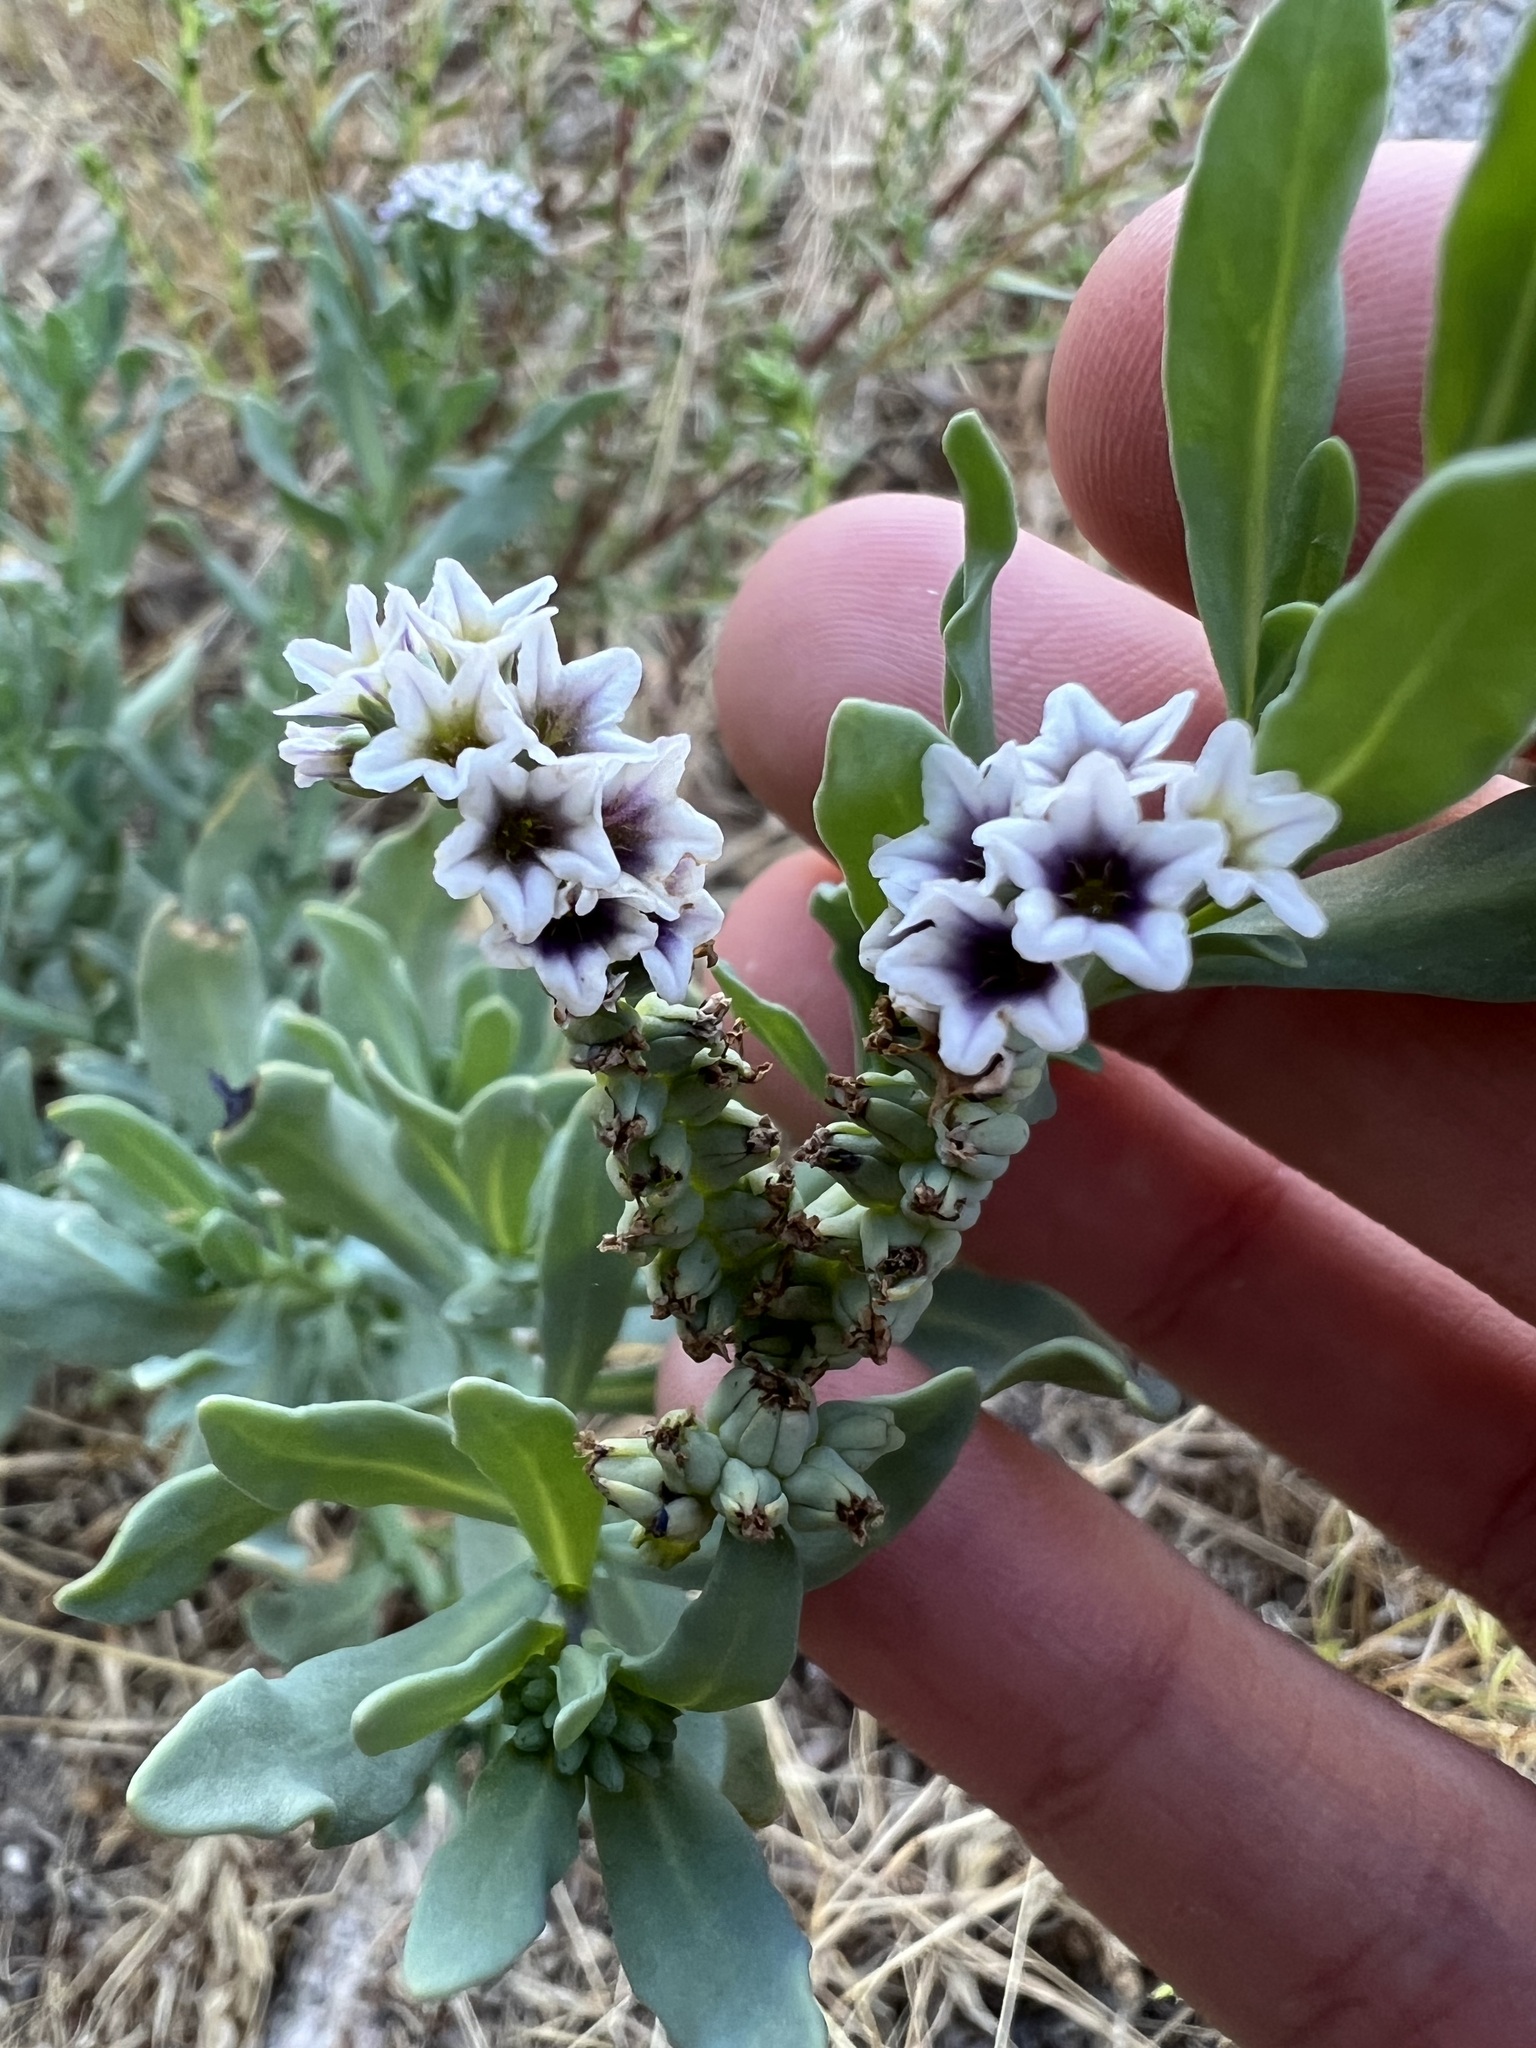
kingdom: Plantae
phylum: Tracheophyta
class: Magnoliopsida
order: Boraginales
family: Heliotropiaceae
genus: Heliotropium
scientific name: Heliotropium curassavicum
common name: Seaside heliotrope
